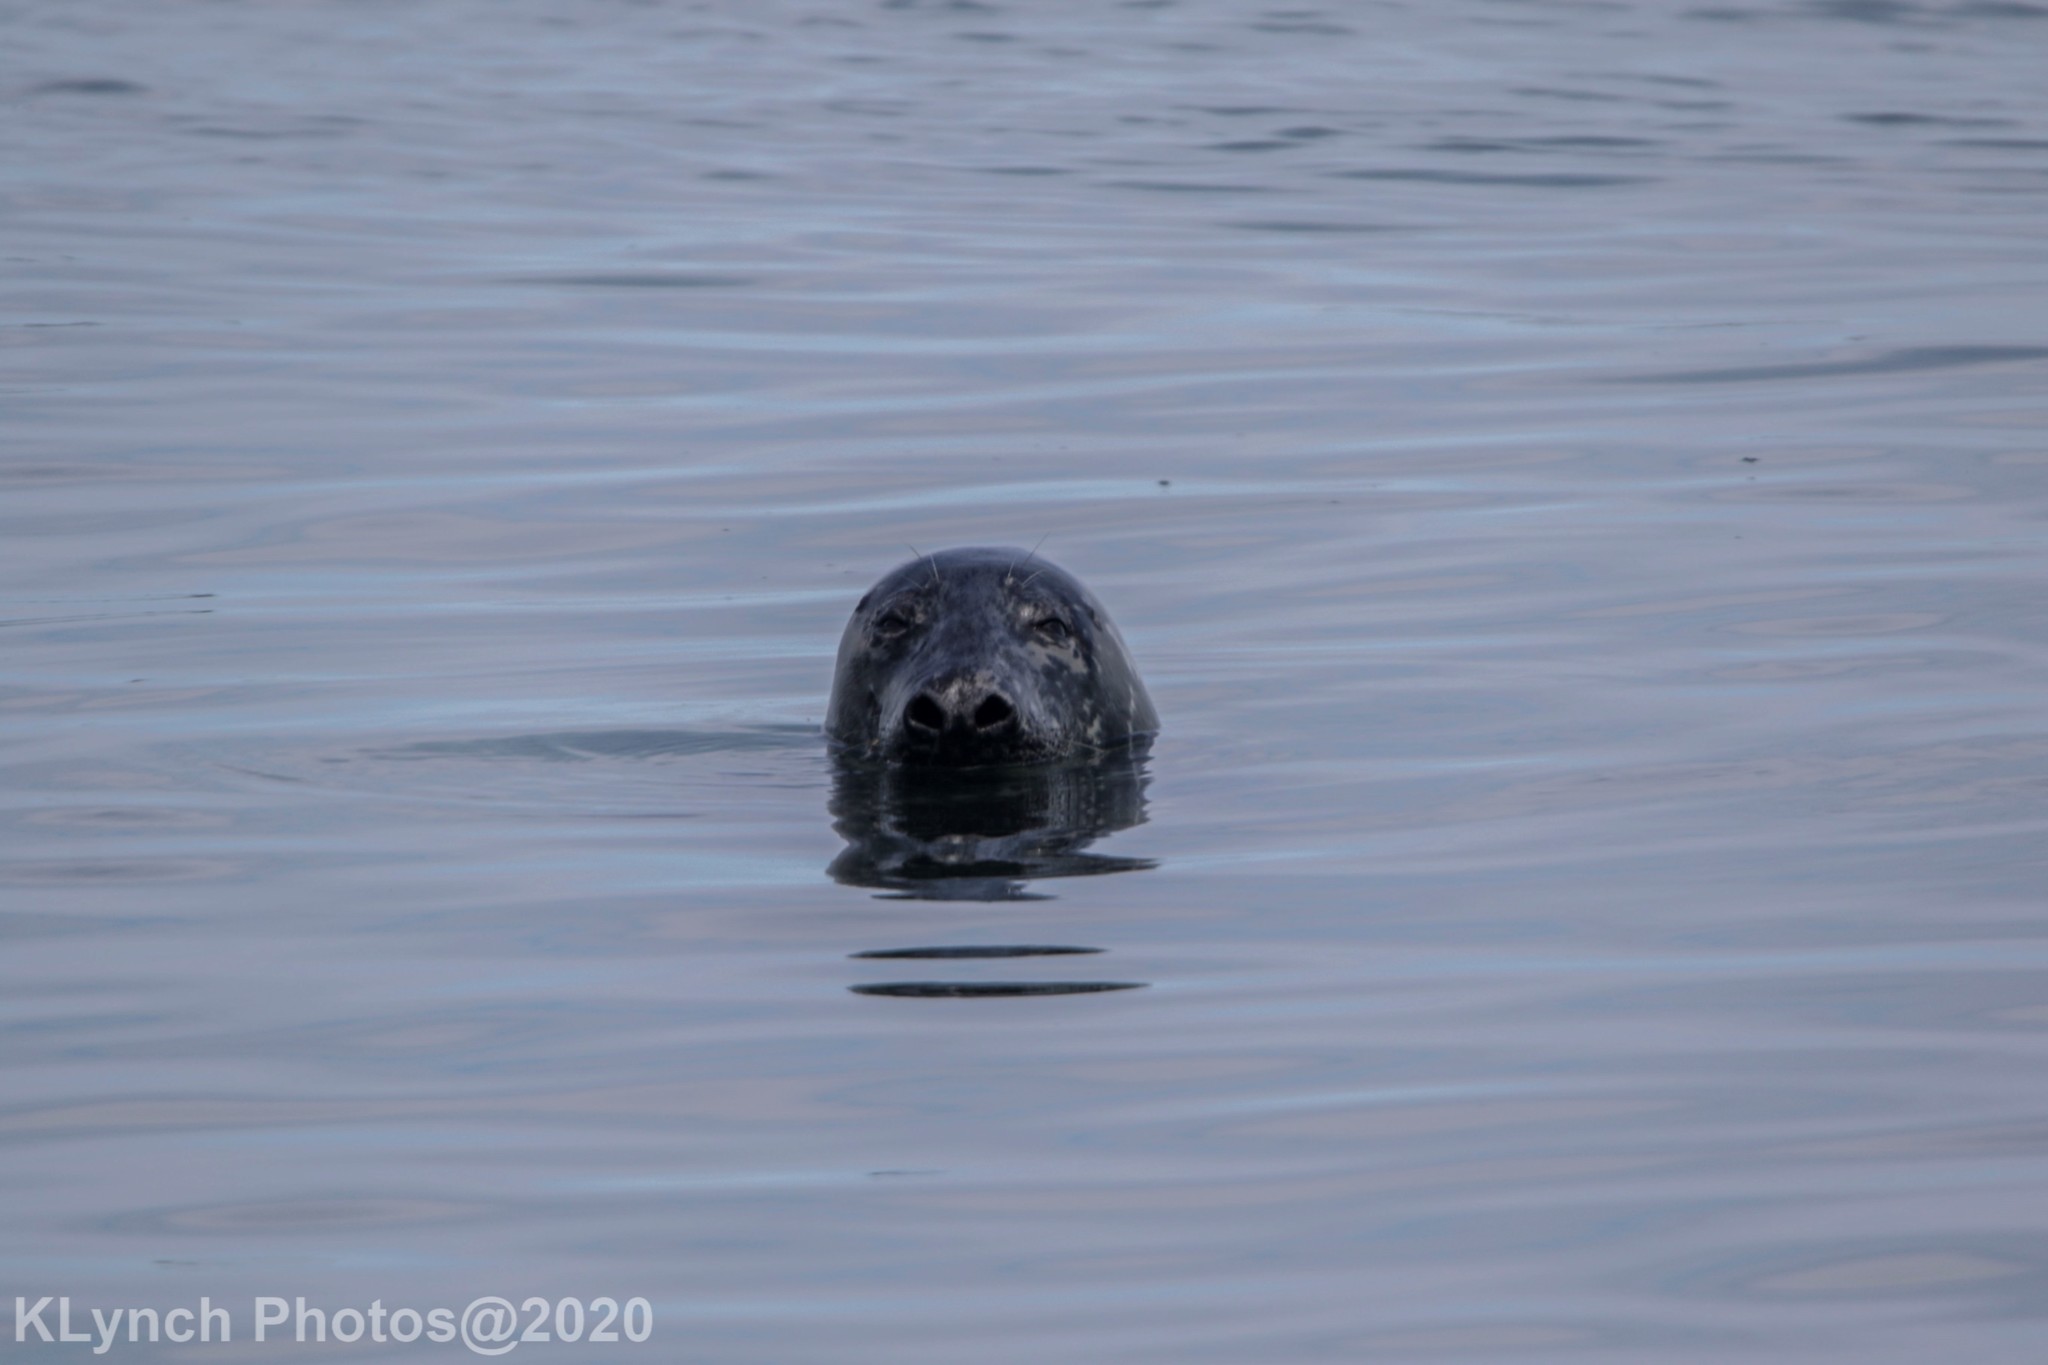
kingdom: Animalia
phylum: Chordata
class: Mammalia
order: Carnivora
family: Phocidae
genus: Halichoerus
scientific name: Halichoerus grypus
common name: Grey seal
